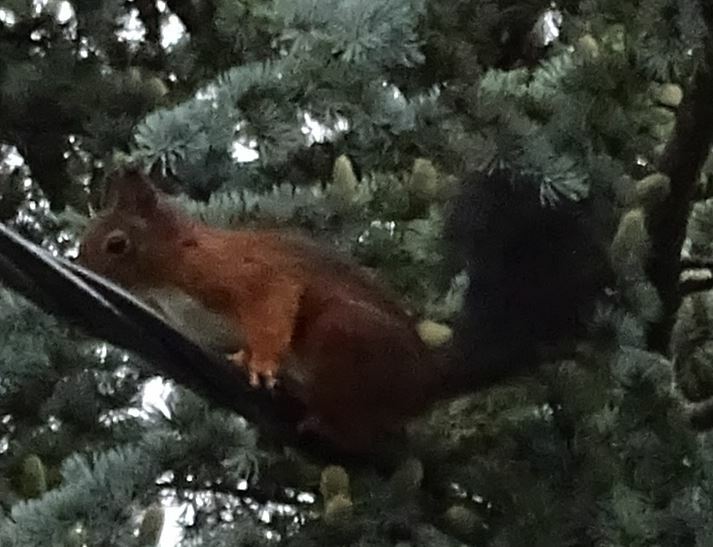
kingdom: Animalia
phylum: Chordata
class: Mammalia
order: Rodentia
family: Sciuridae
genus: Sciurus
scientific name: Sciurus vulgaris
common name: Eurasian red squirrel
